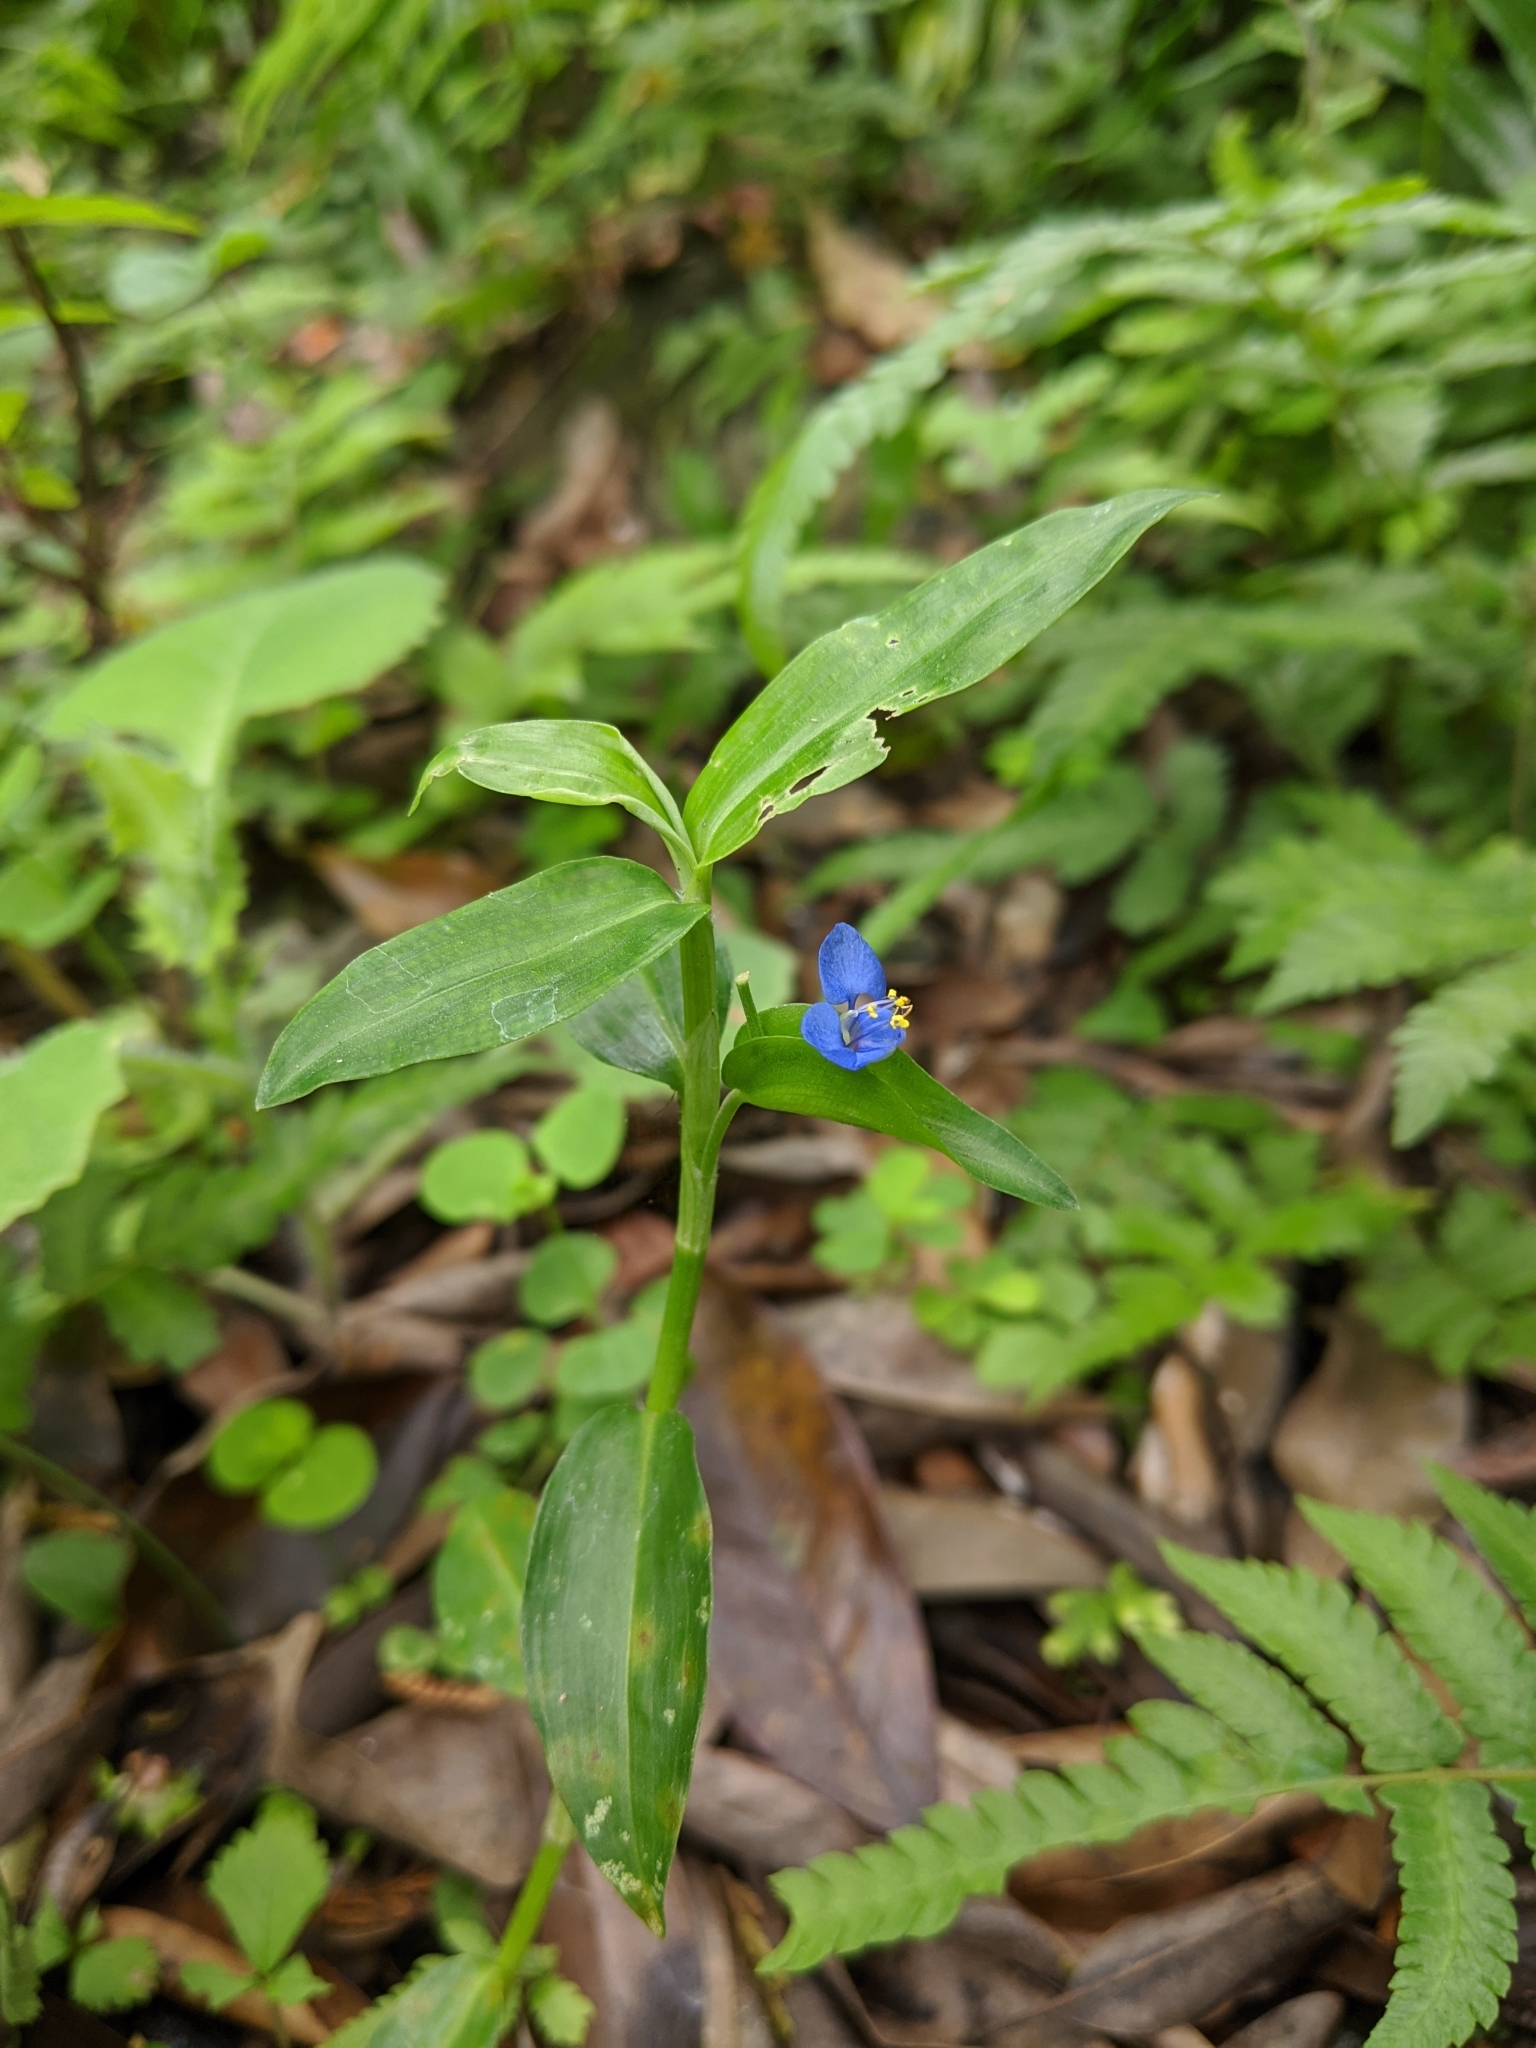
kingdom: Plantae
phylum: Tracheophyta
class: Liliopsida
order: Commelinales
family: Commelinaceae
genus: Commelina
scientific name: Commelina communis
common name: Asiatic dayflower
